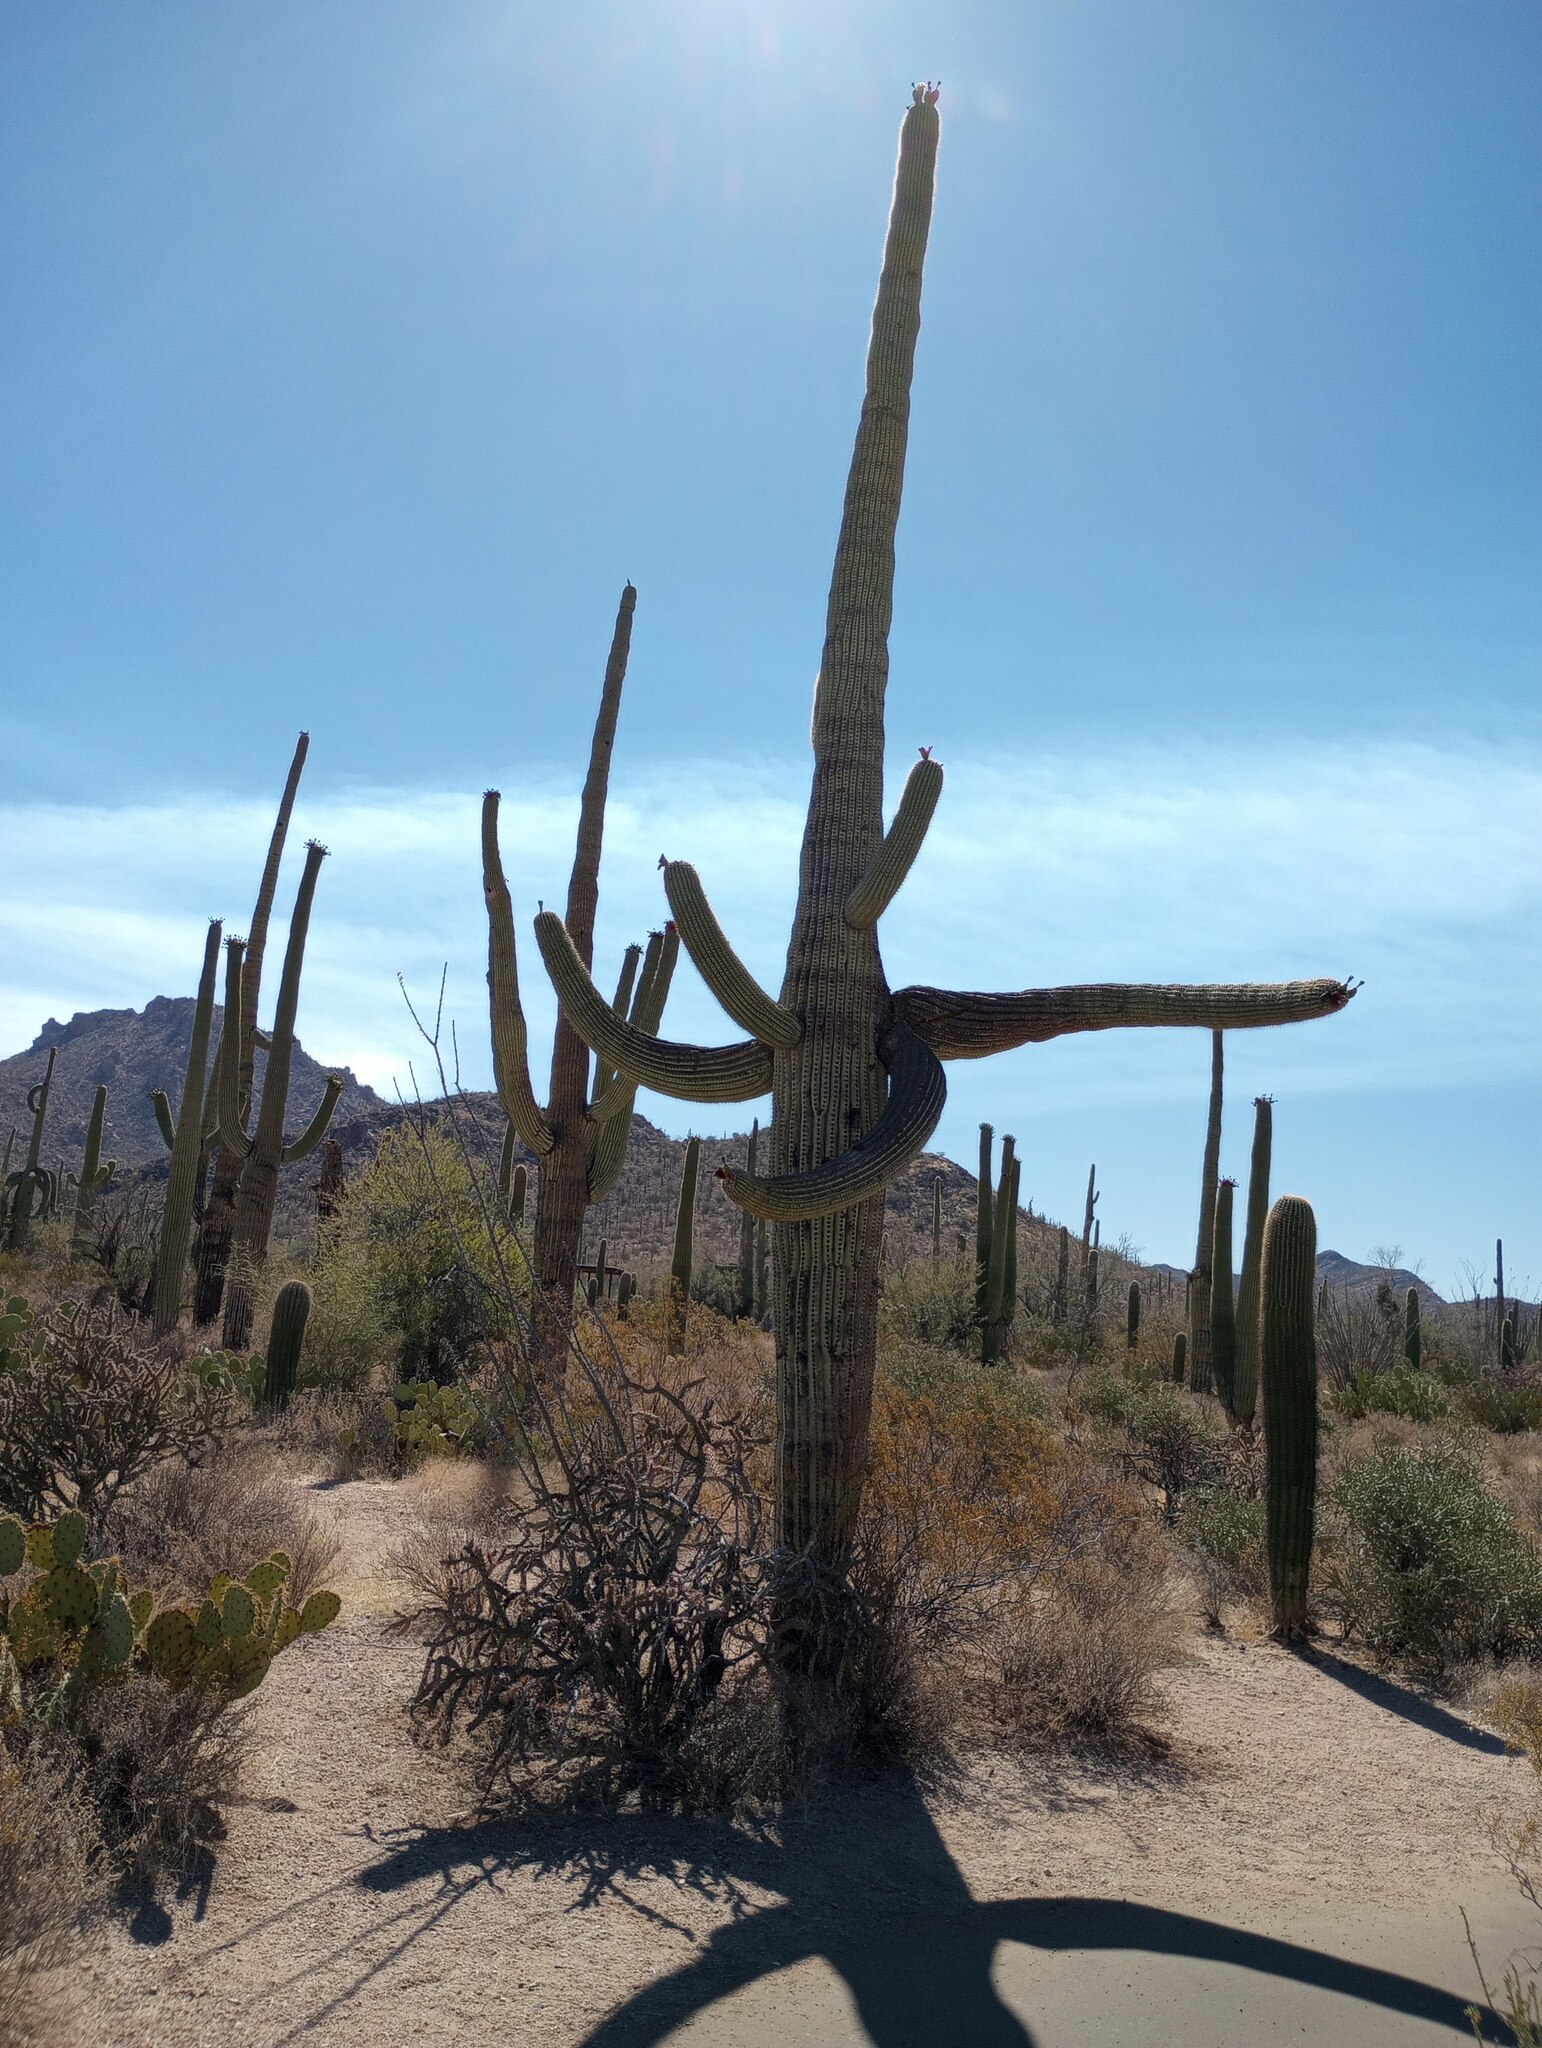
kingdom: Plantae
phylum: Tracheophyta
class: Magnoliopsida
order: Caryophyllales
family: Cactaceae
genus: Carnegiea
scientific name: Carnegiea gigantea
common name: Saguaro
